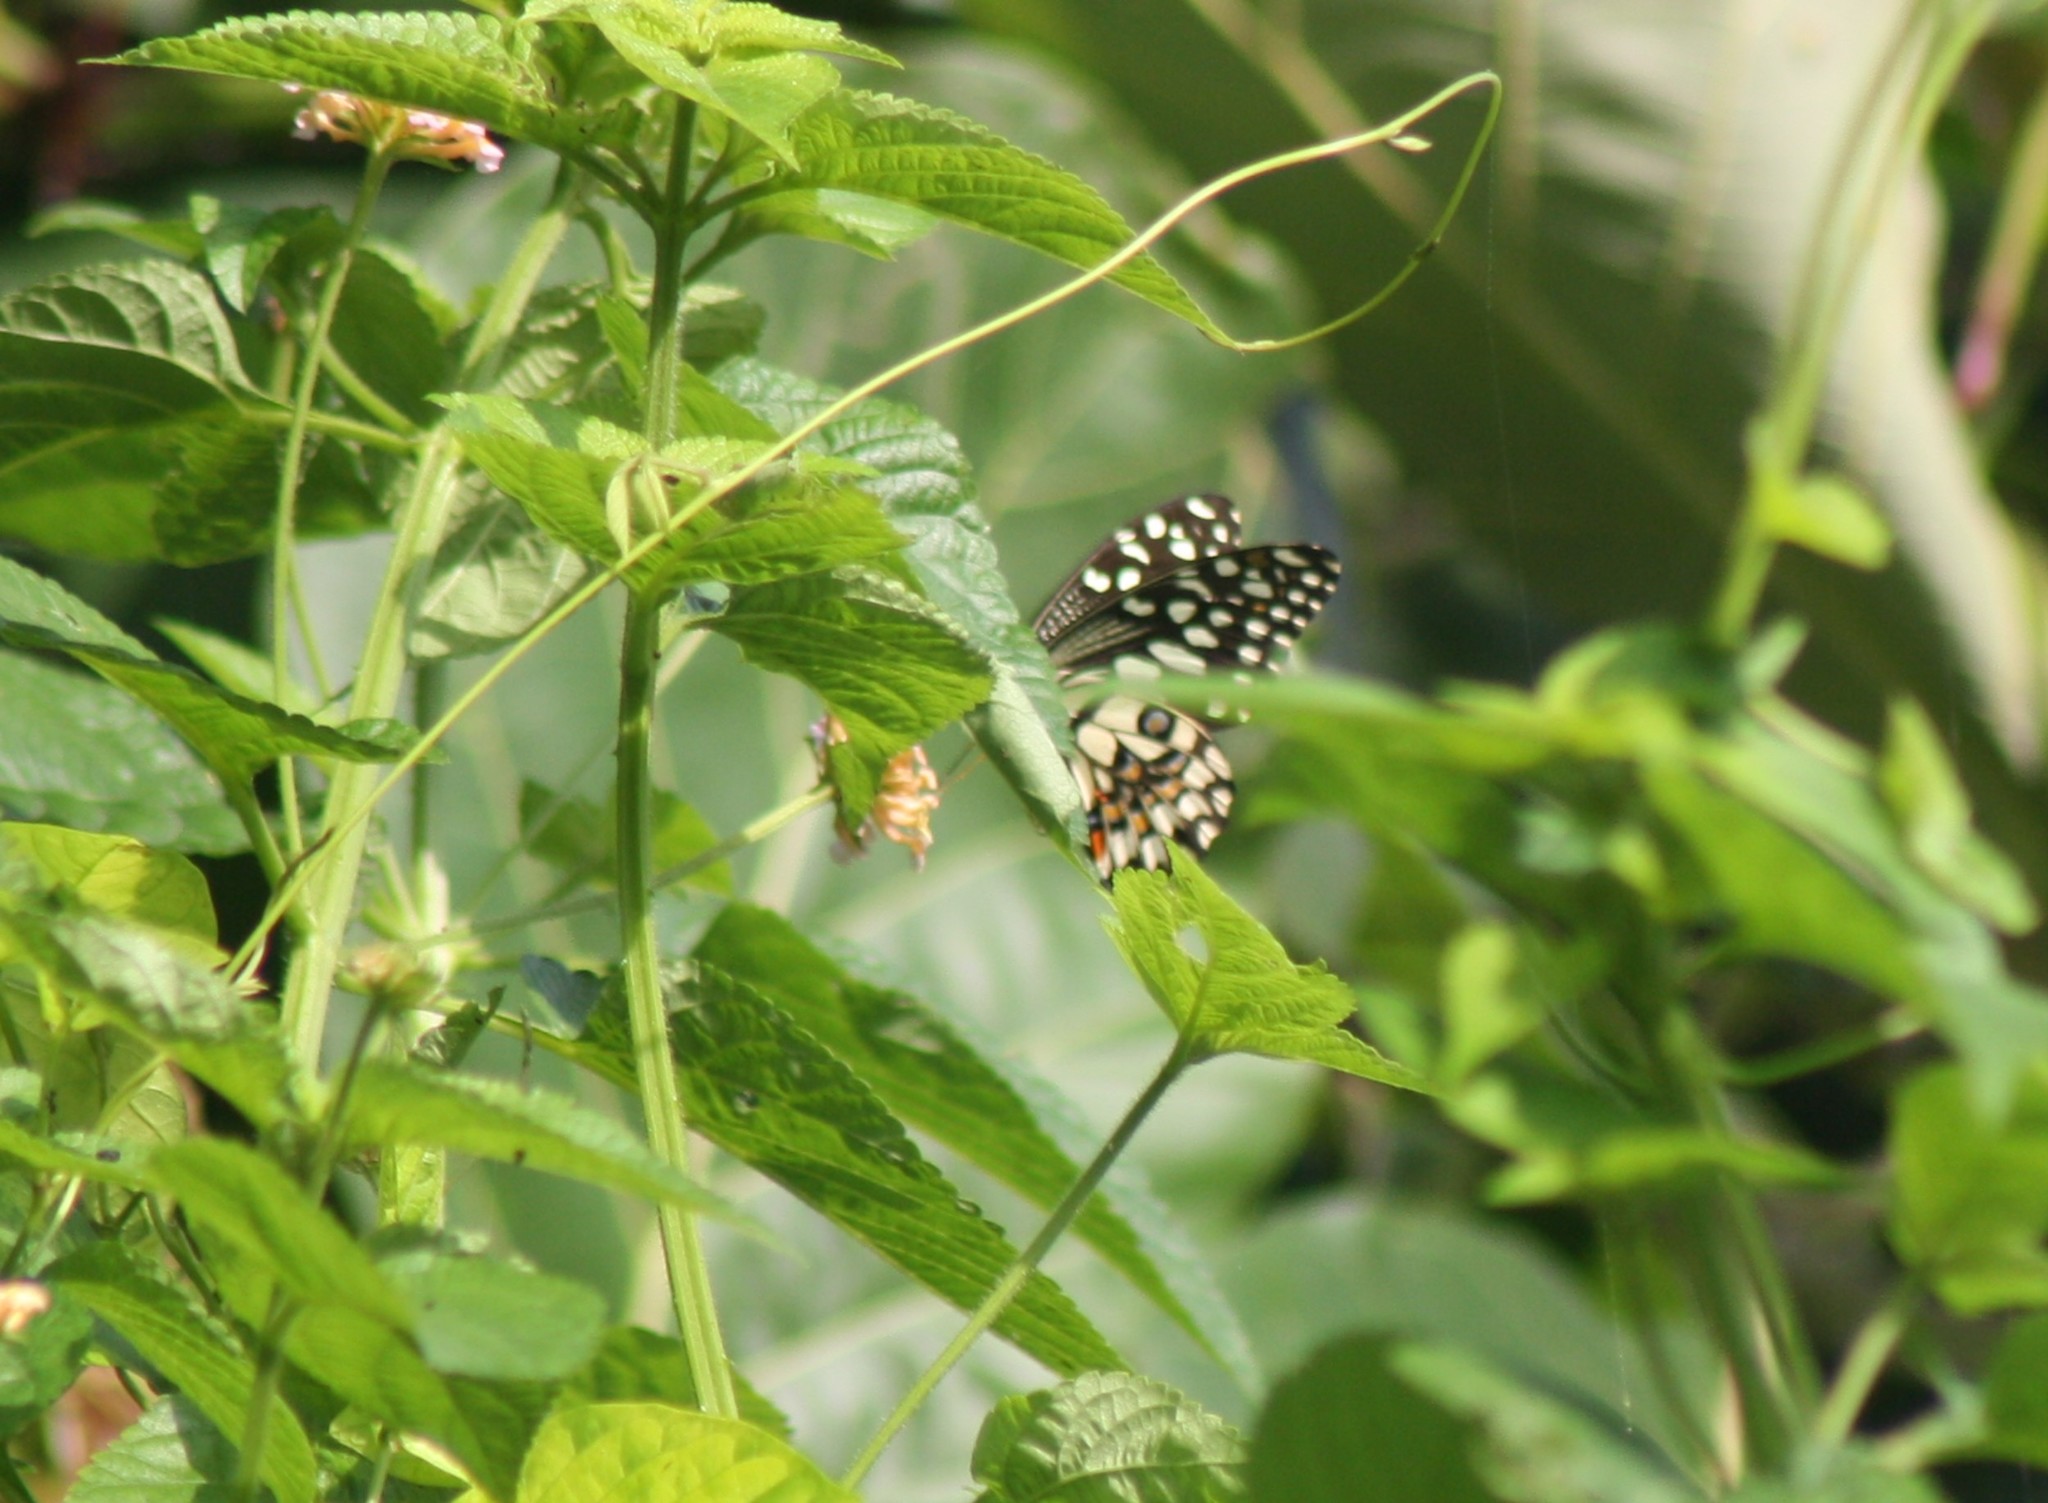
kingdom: Animalia
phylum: Arthropoda
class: Insecta
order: Lepidoptera
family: Papilionidae
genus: Papilio
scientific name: Papilio demoleus
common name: Lime butterfly
